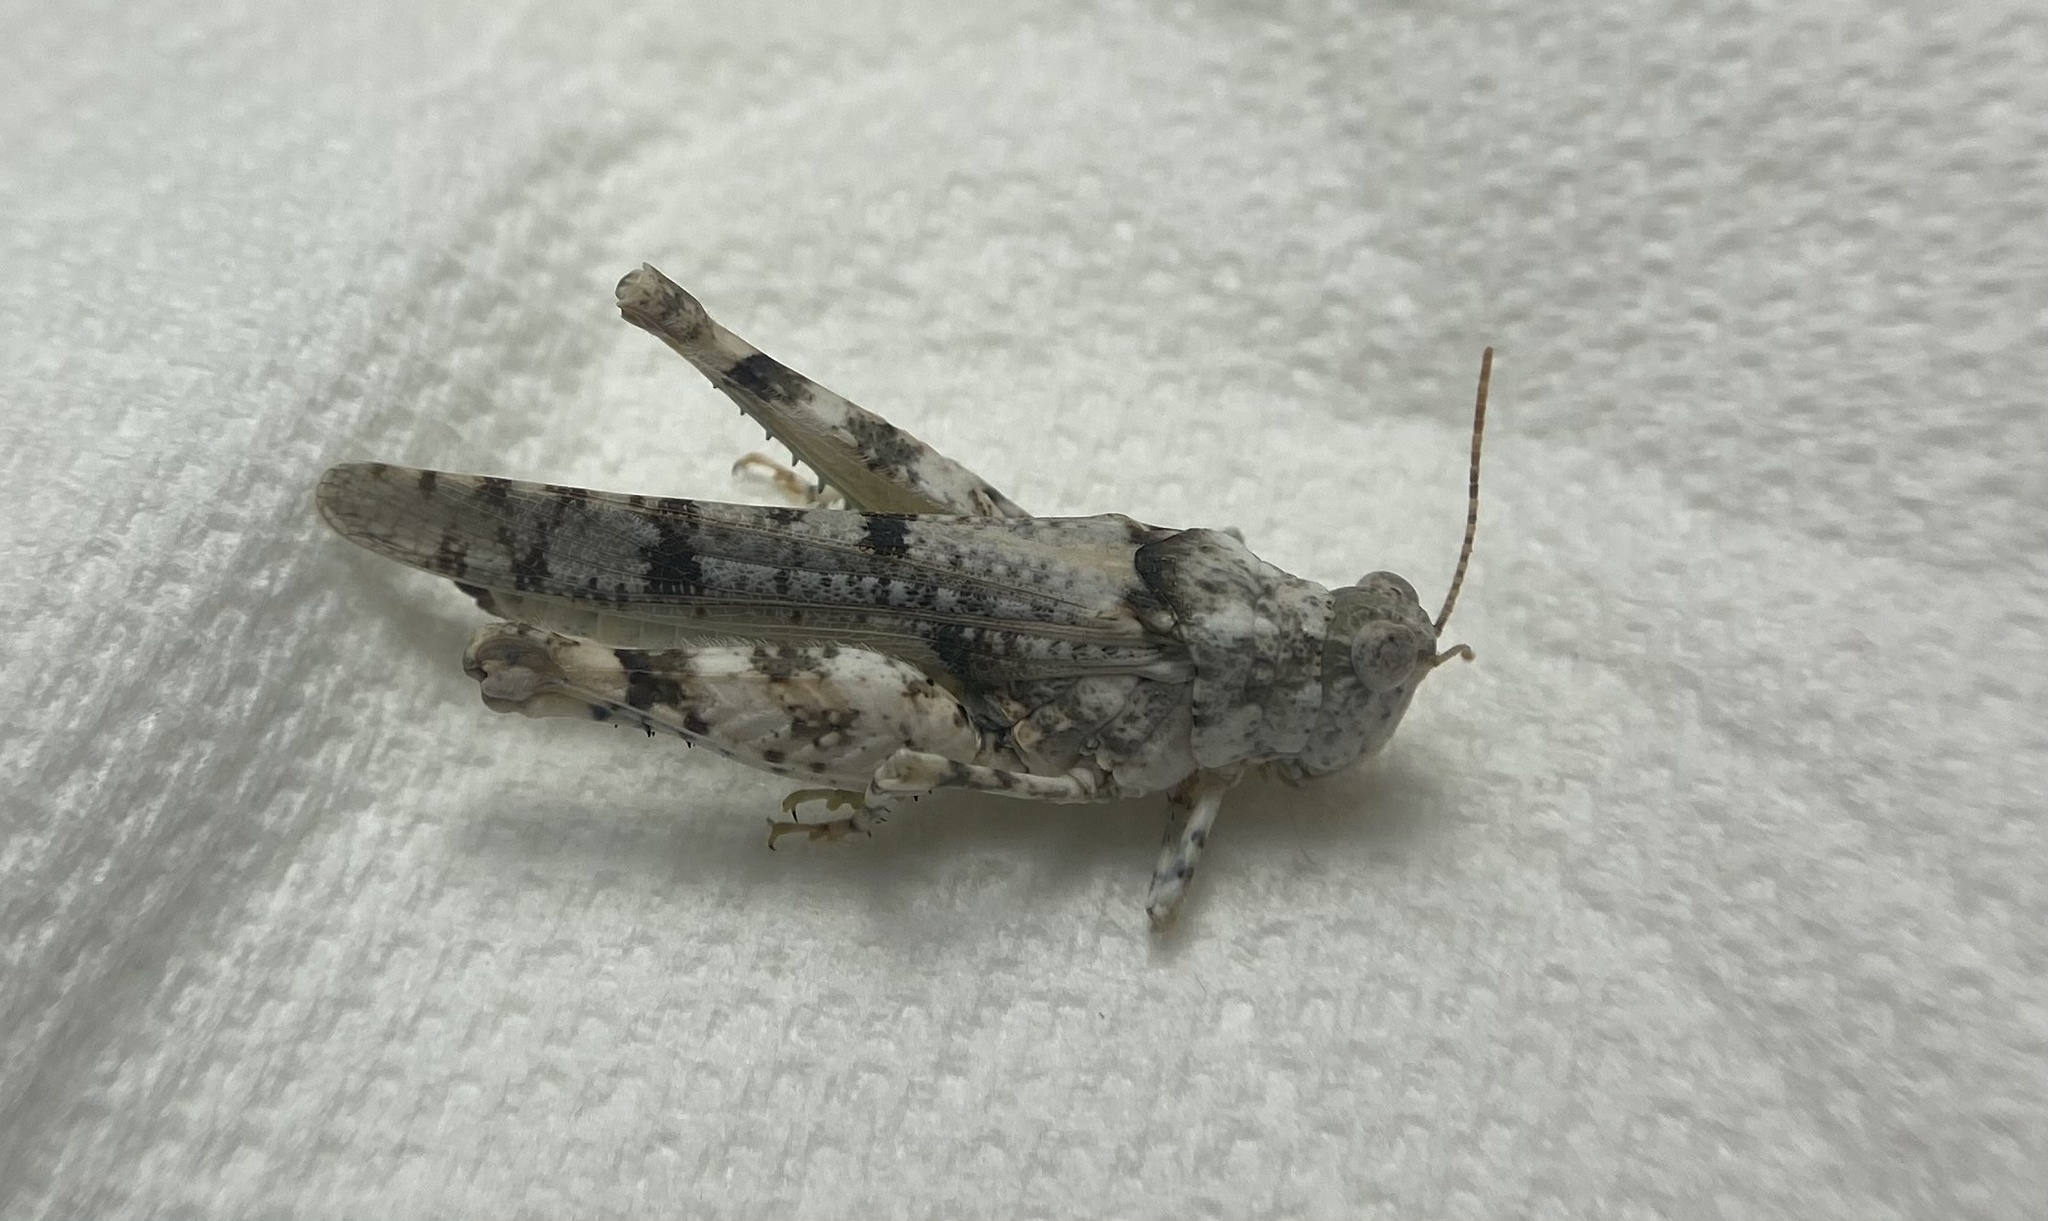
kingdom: Animalia
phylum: Arthropoda
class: Insecta
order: Orthoptera
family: Acrididae
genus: Cibolacris
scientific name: Cibolacris parviceps
